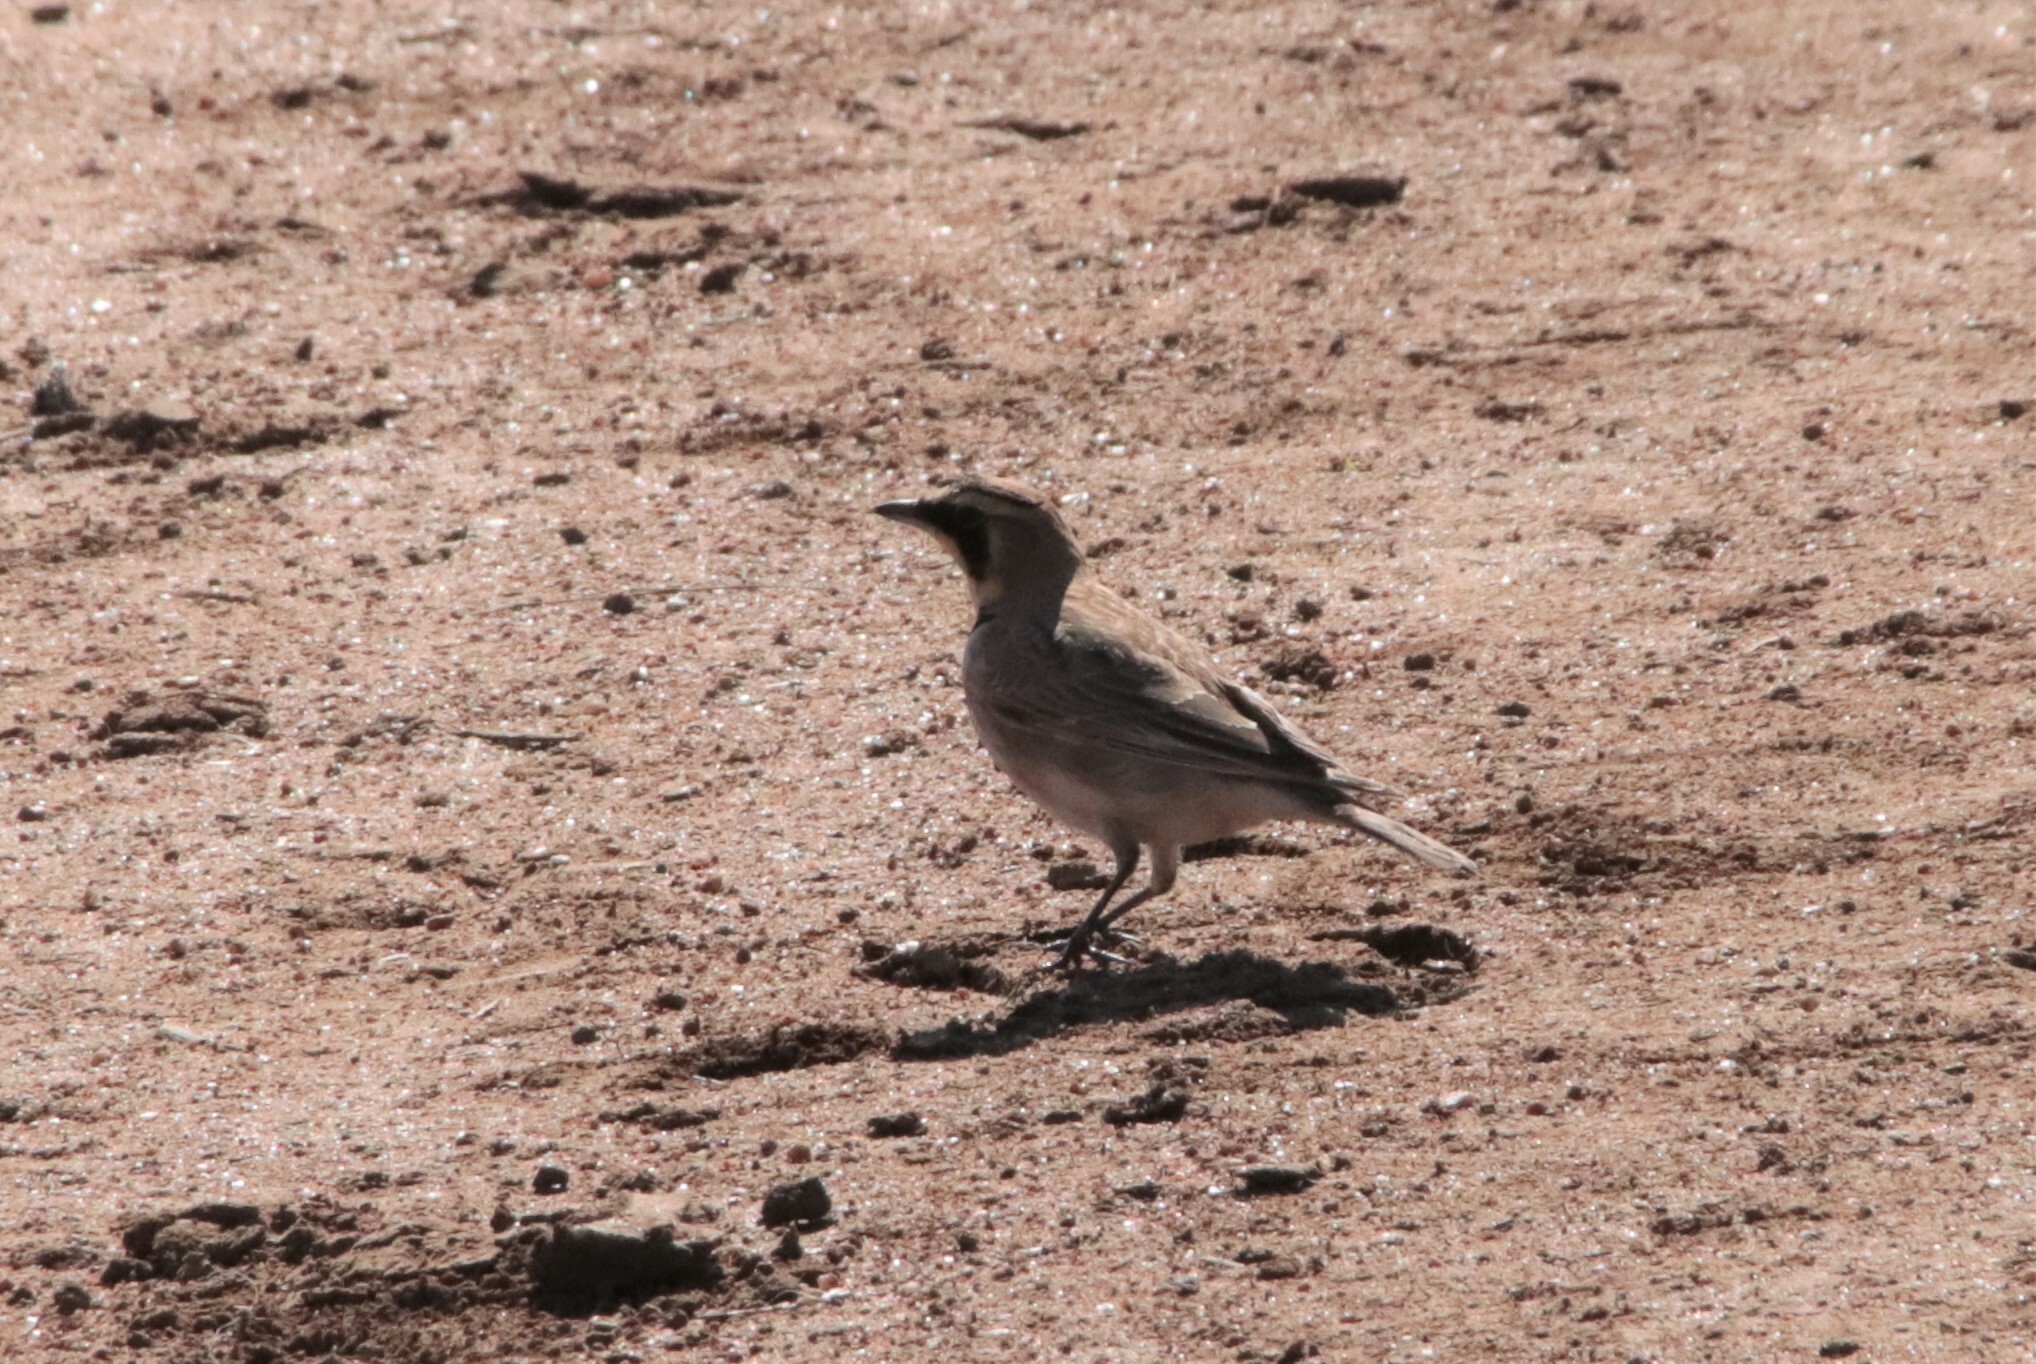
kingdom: Animalia
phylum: Chordata
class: Aves
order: Passeriformes
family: Alaudidae
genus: Eremophila
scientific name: Eremophila alpestris
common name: Horned lark
